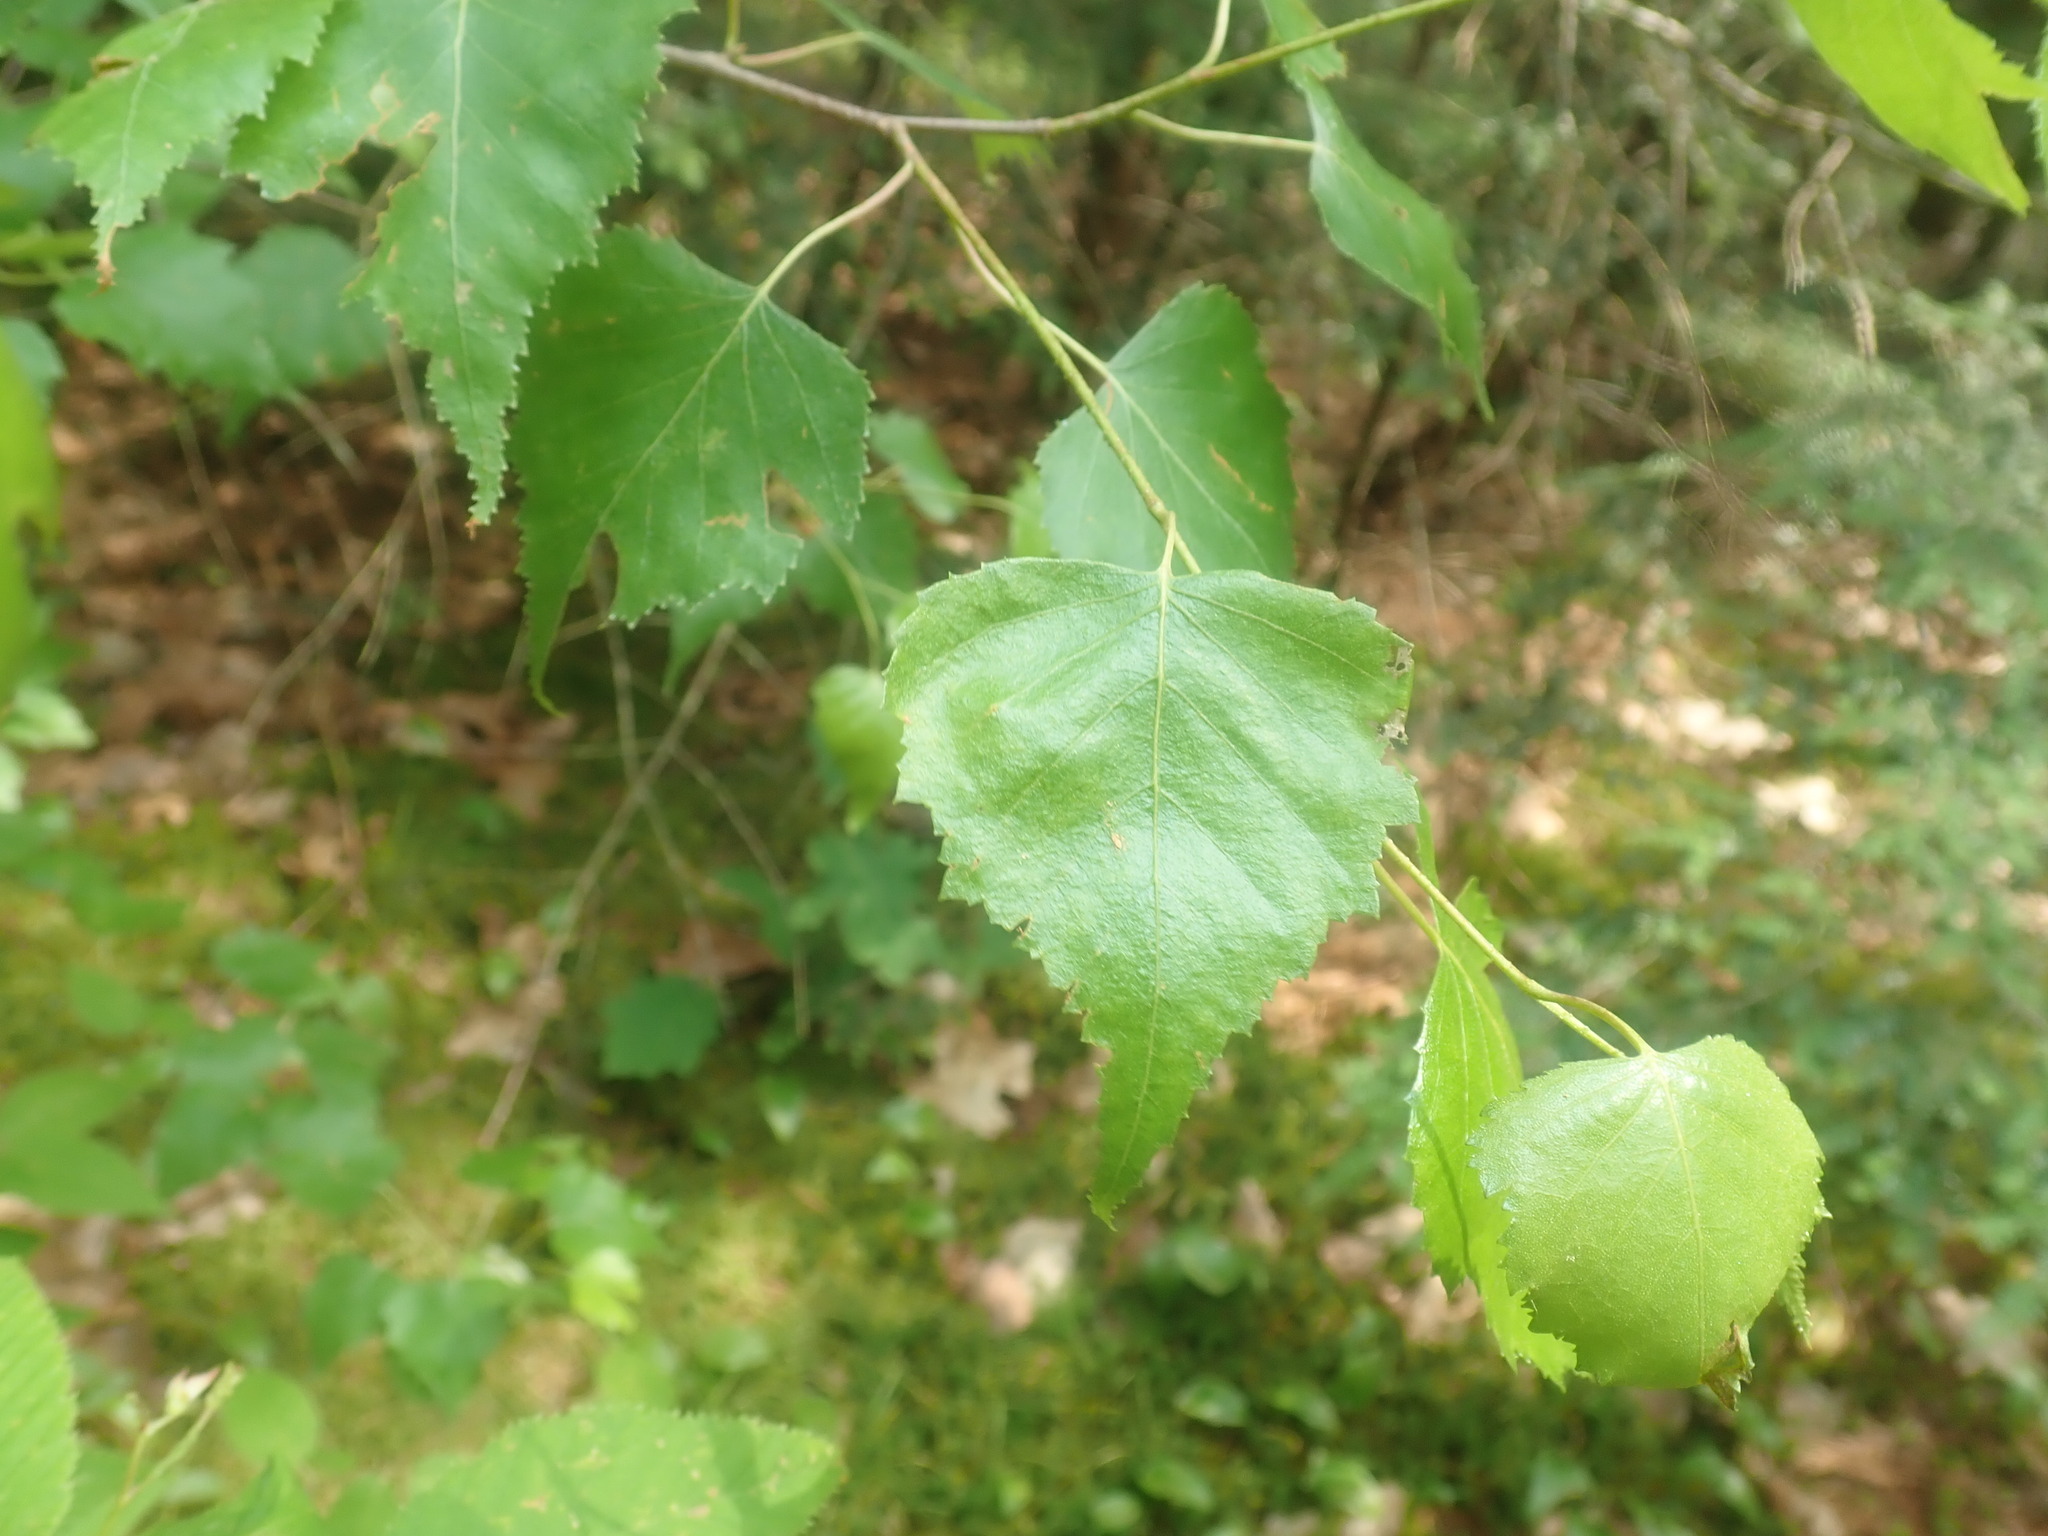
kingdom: Plantae
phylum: Tracheophyta
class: Magnoliopsida
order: Fagales
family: Betulaceae
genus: Betula
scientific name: Betula populifolia
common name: Fire birch
